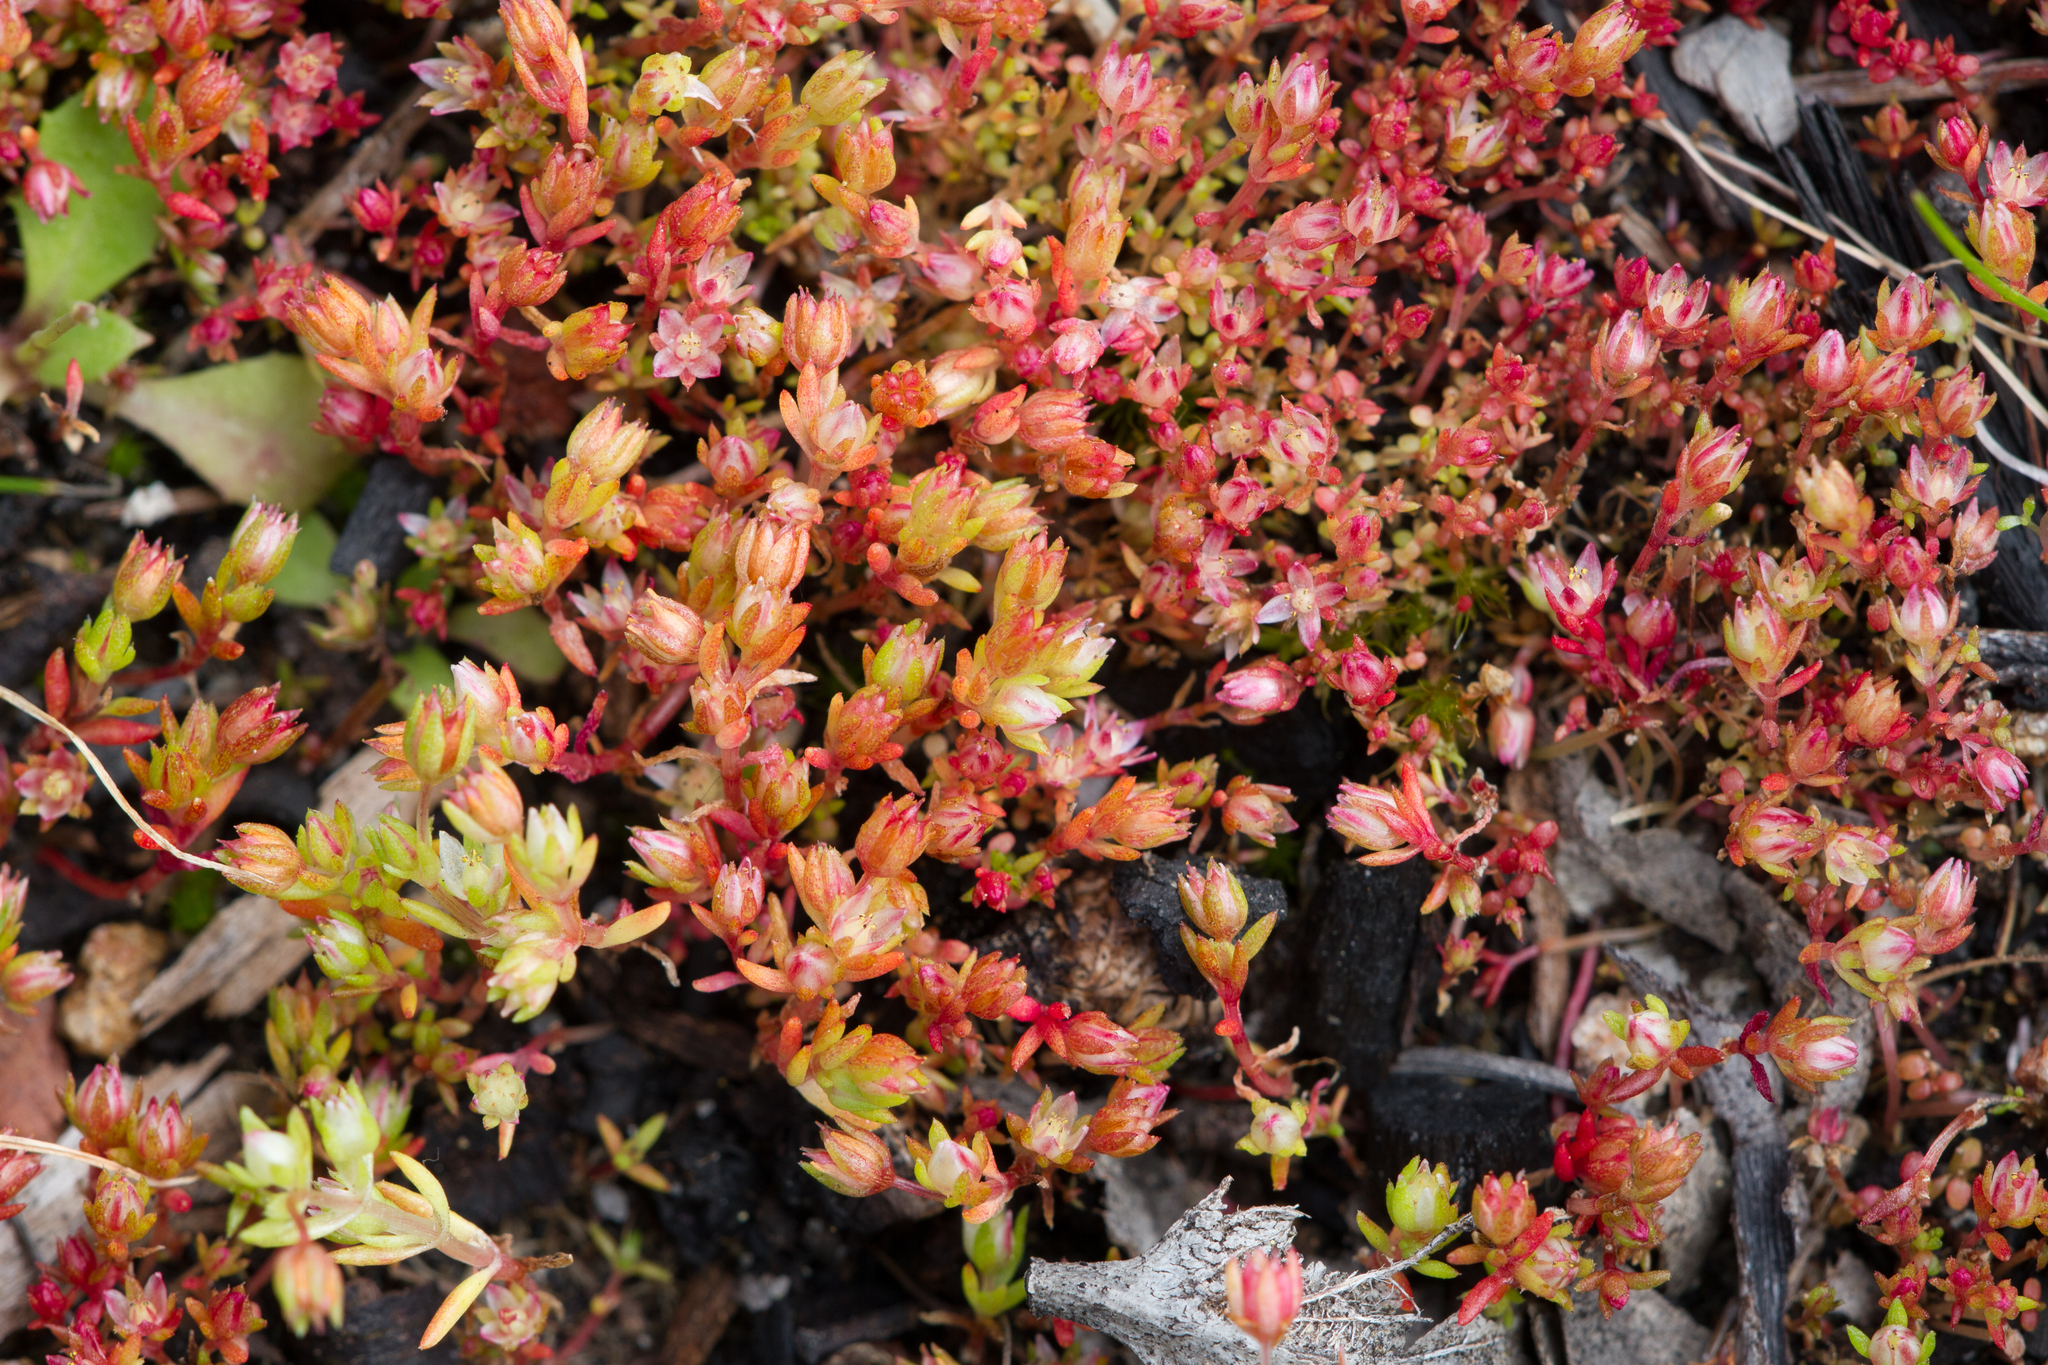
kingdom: Plantae
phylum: Tracheophyta
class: Magnoliopsida
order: Saxifragales
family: Crassulaceae
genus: Crassula
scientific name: Crassula decumbens
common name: Scilly pigmyweed
